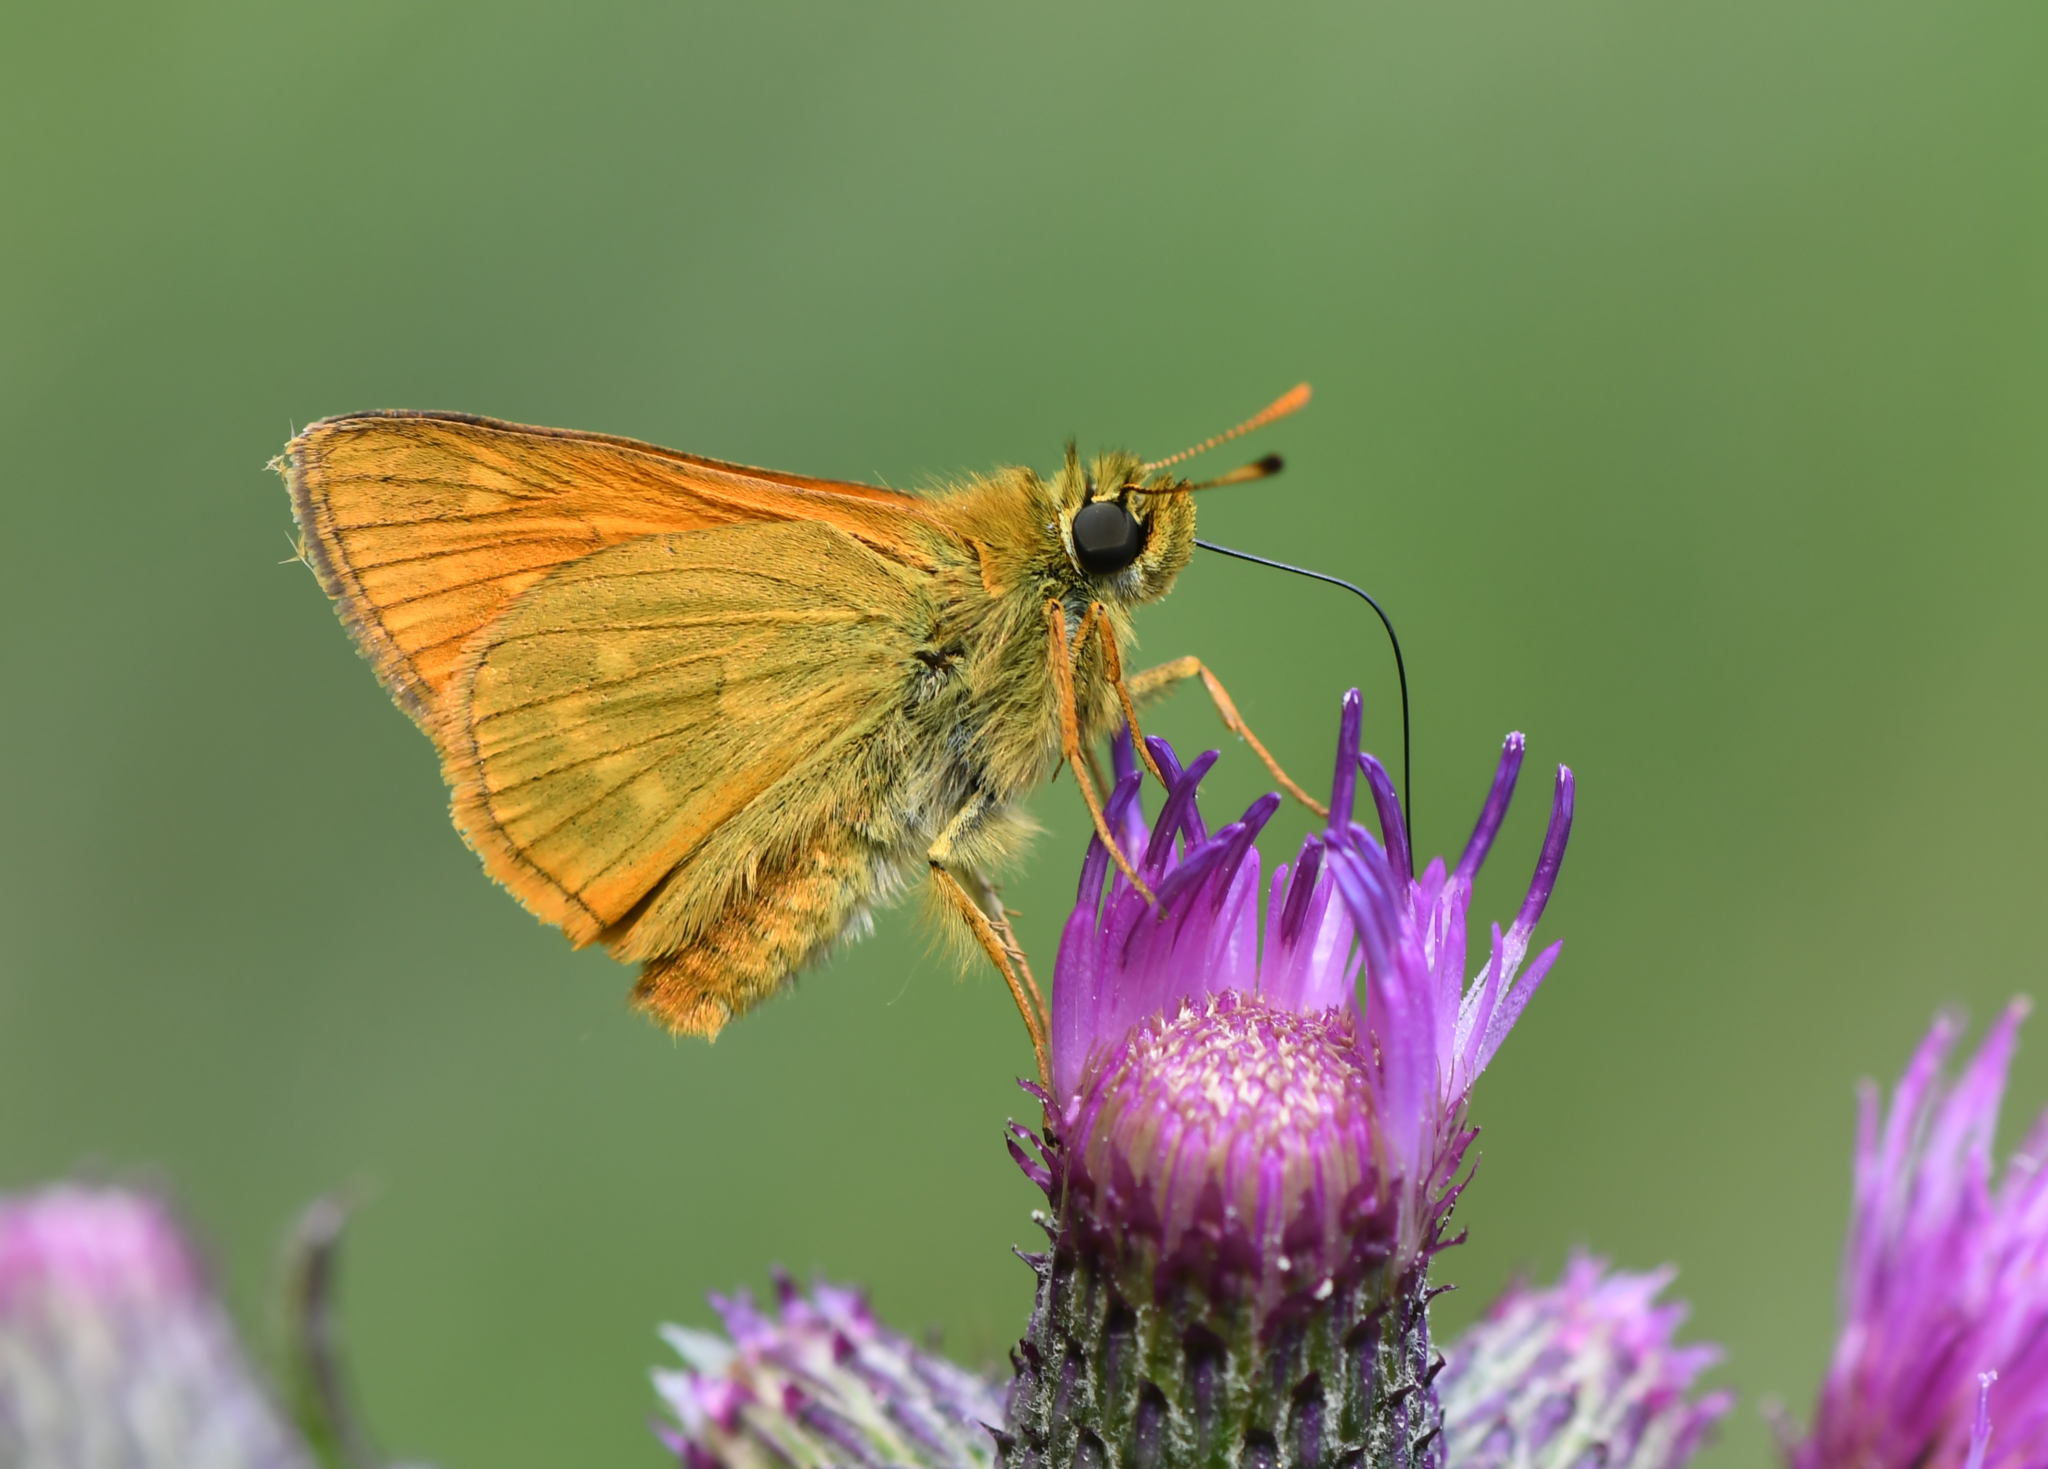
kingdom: Animalia
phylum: Arthropoda
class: Insecta
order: Lepidoptera
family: Hesperiidae
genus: Ochlodes
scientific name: Ochlodes venata
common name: Large skipper
